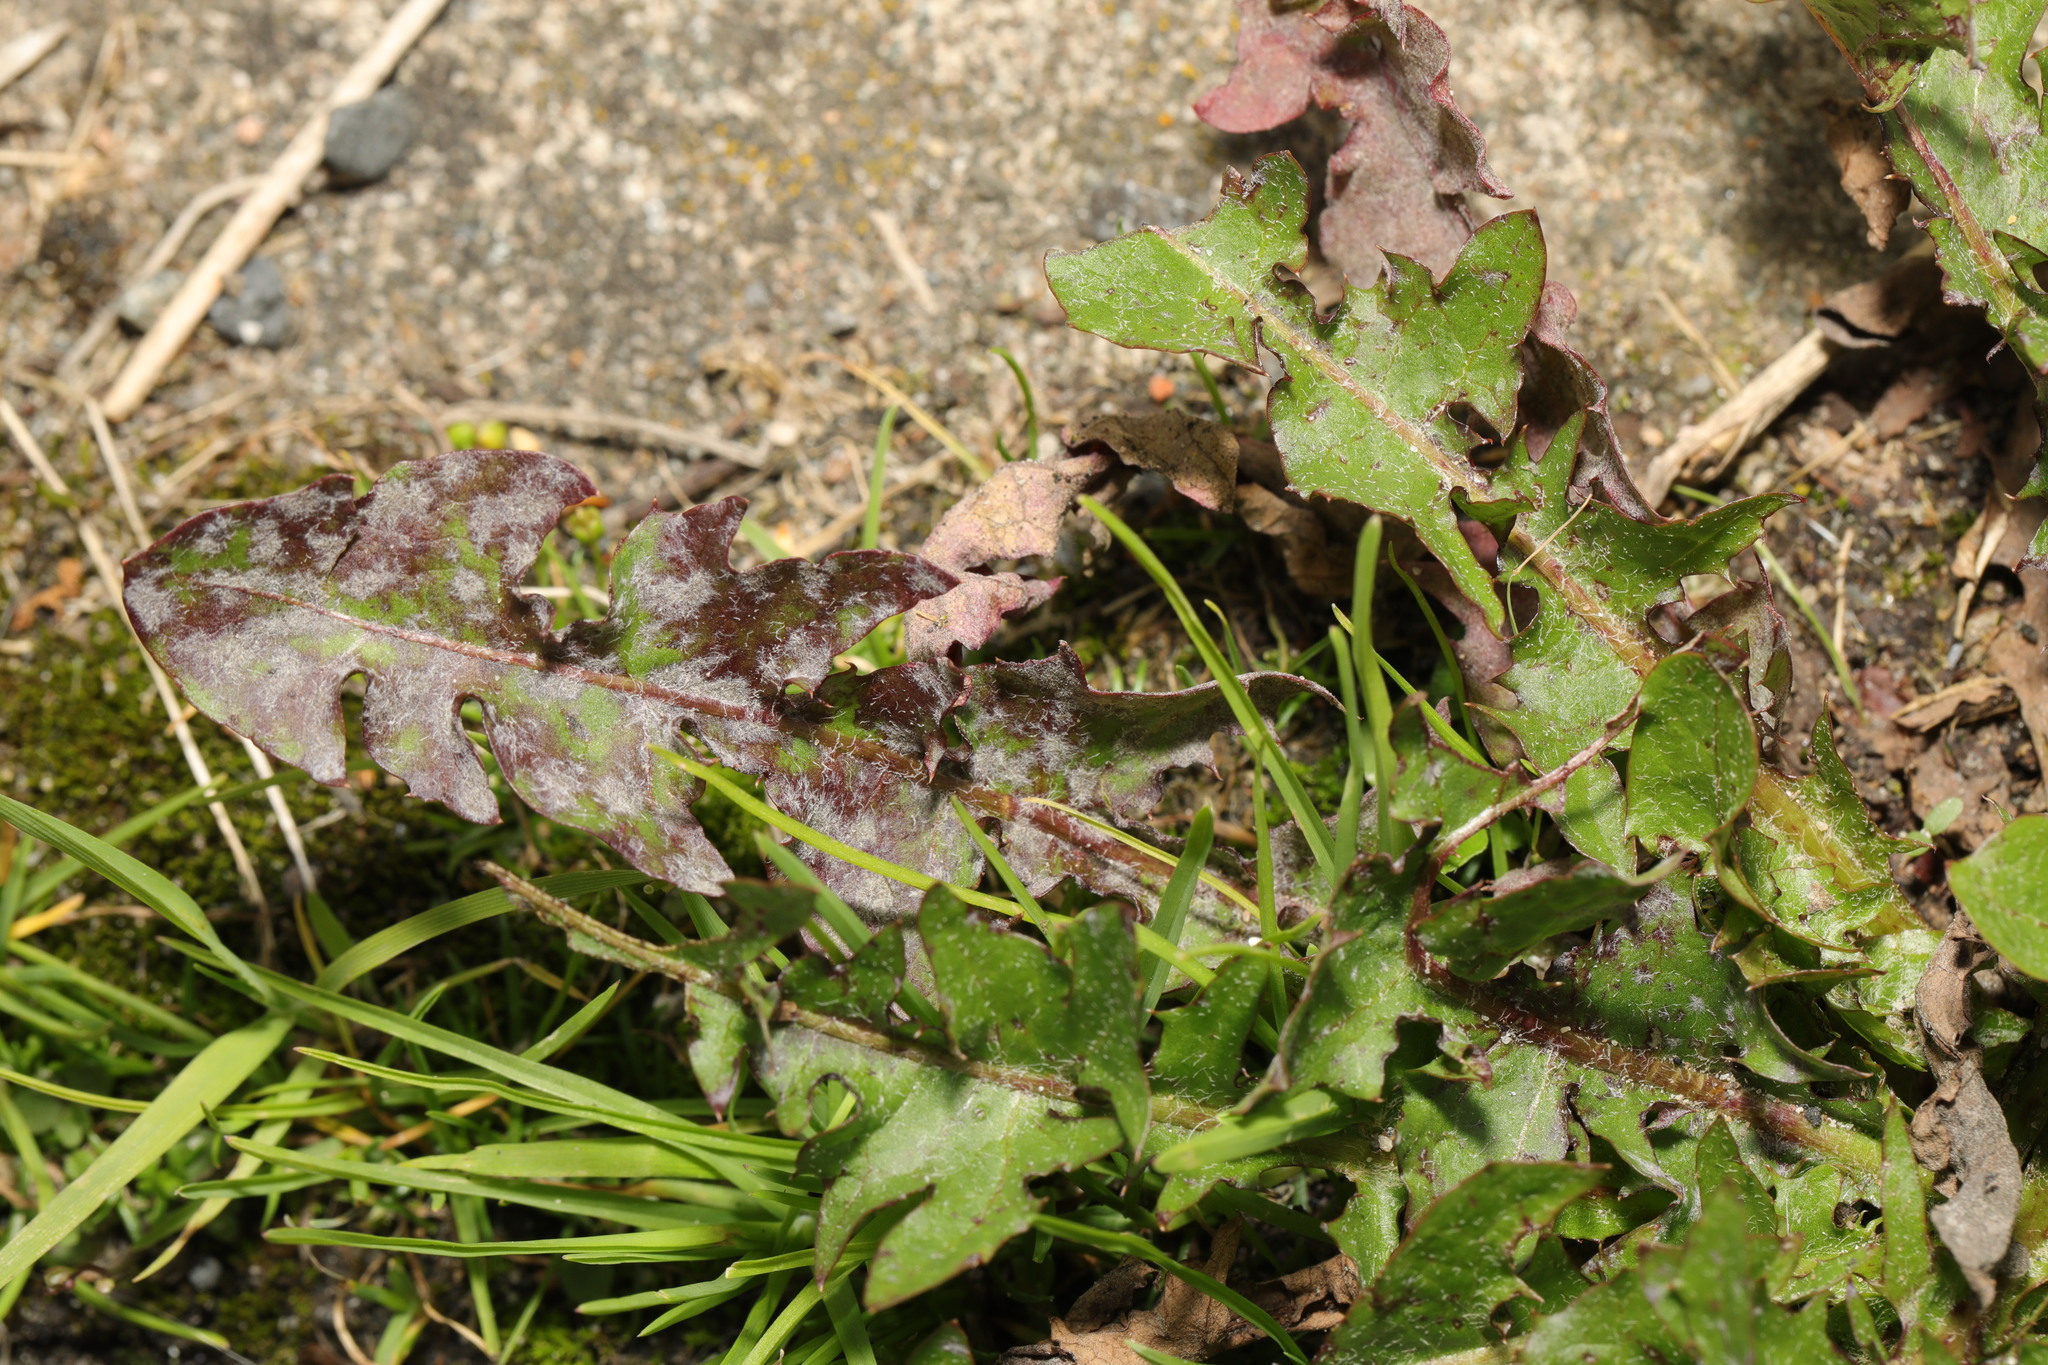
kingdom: Fungi
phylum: Ascomycota
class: Leotiomycetes
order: Helotiales
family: Erysiphaceae
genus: Podosphaera
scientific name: Podosphaera erigerontis-canadensis
